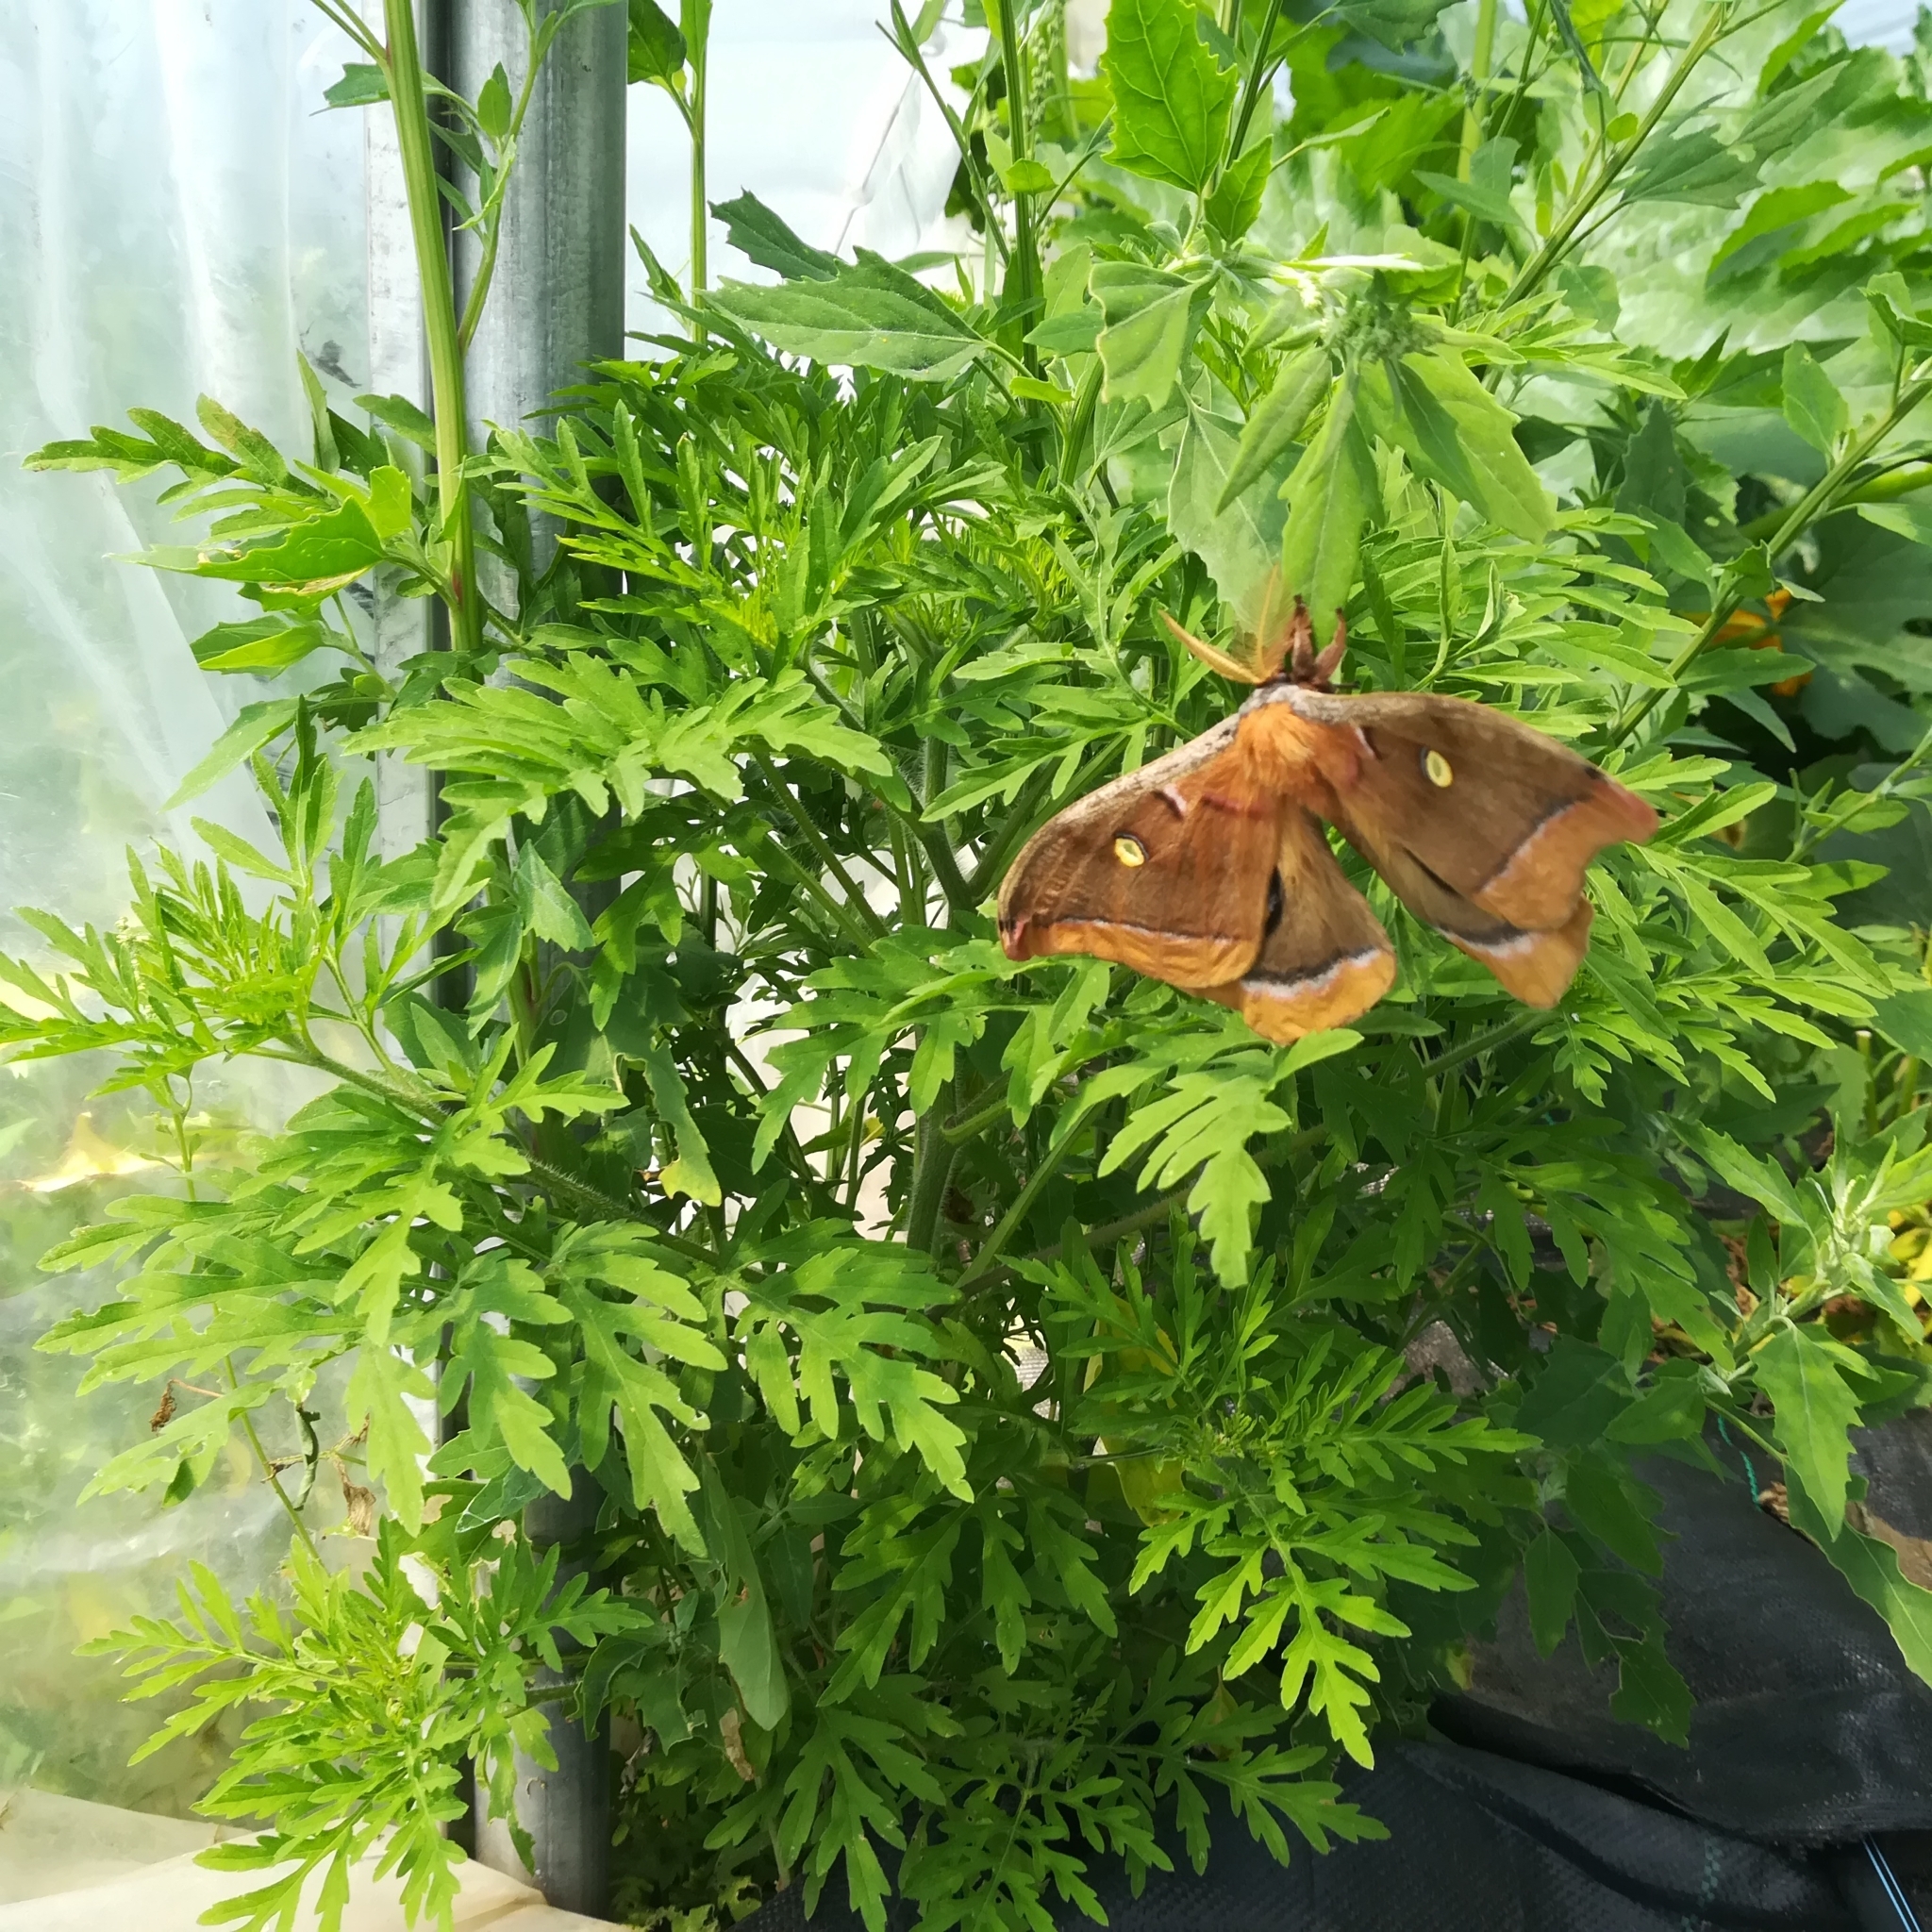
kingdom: Animalia
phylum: Arthropoda
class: Insecta
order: Lepidoptera
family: Saturniidae
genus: Antheraea
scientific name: Antheraea polyphemus
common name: Polyphemus moth
